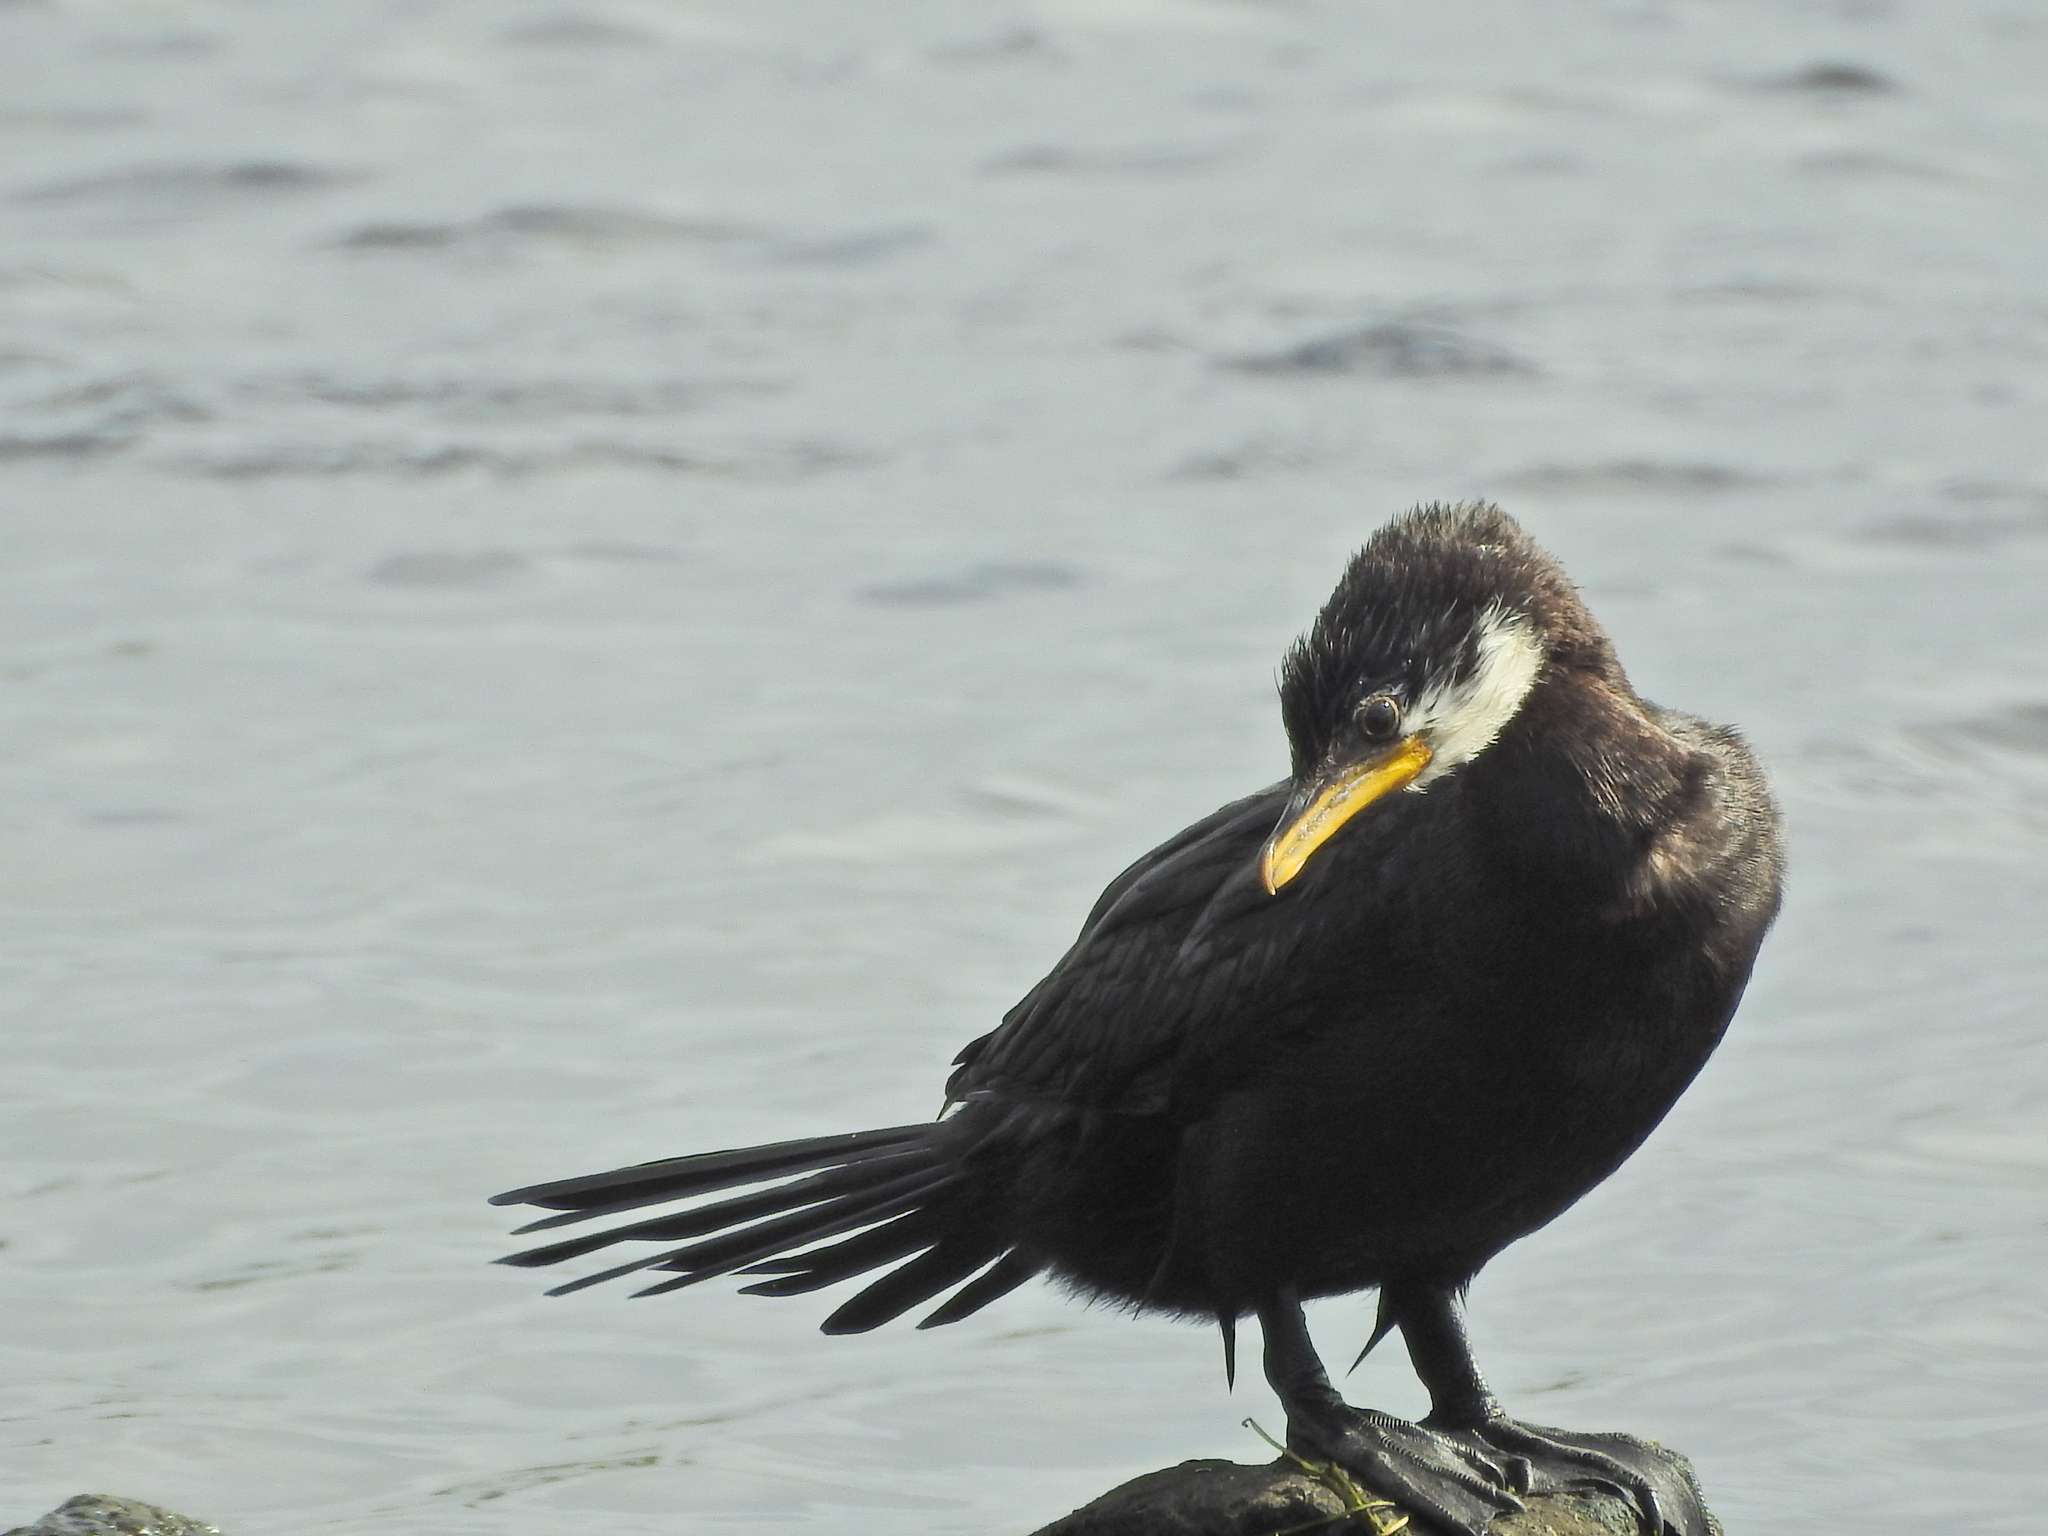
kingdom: Animalia
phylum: Chordata
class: Aves
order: Suliformes
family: Phalacrocoracidae
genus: Microcarbo
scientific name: Microcarbo melanoleucos
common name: Little pied cormorant
